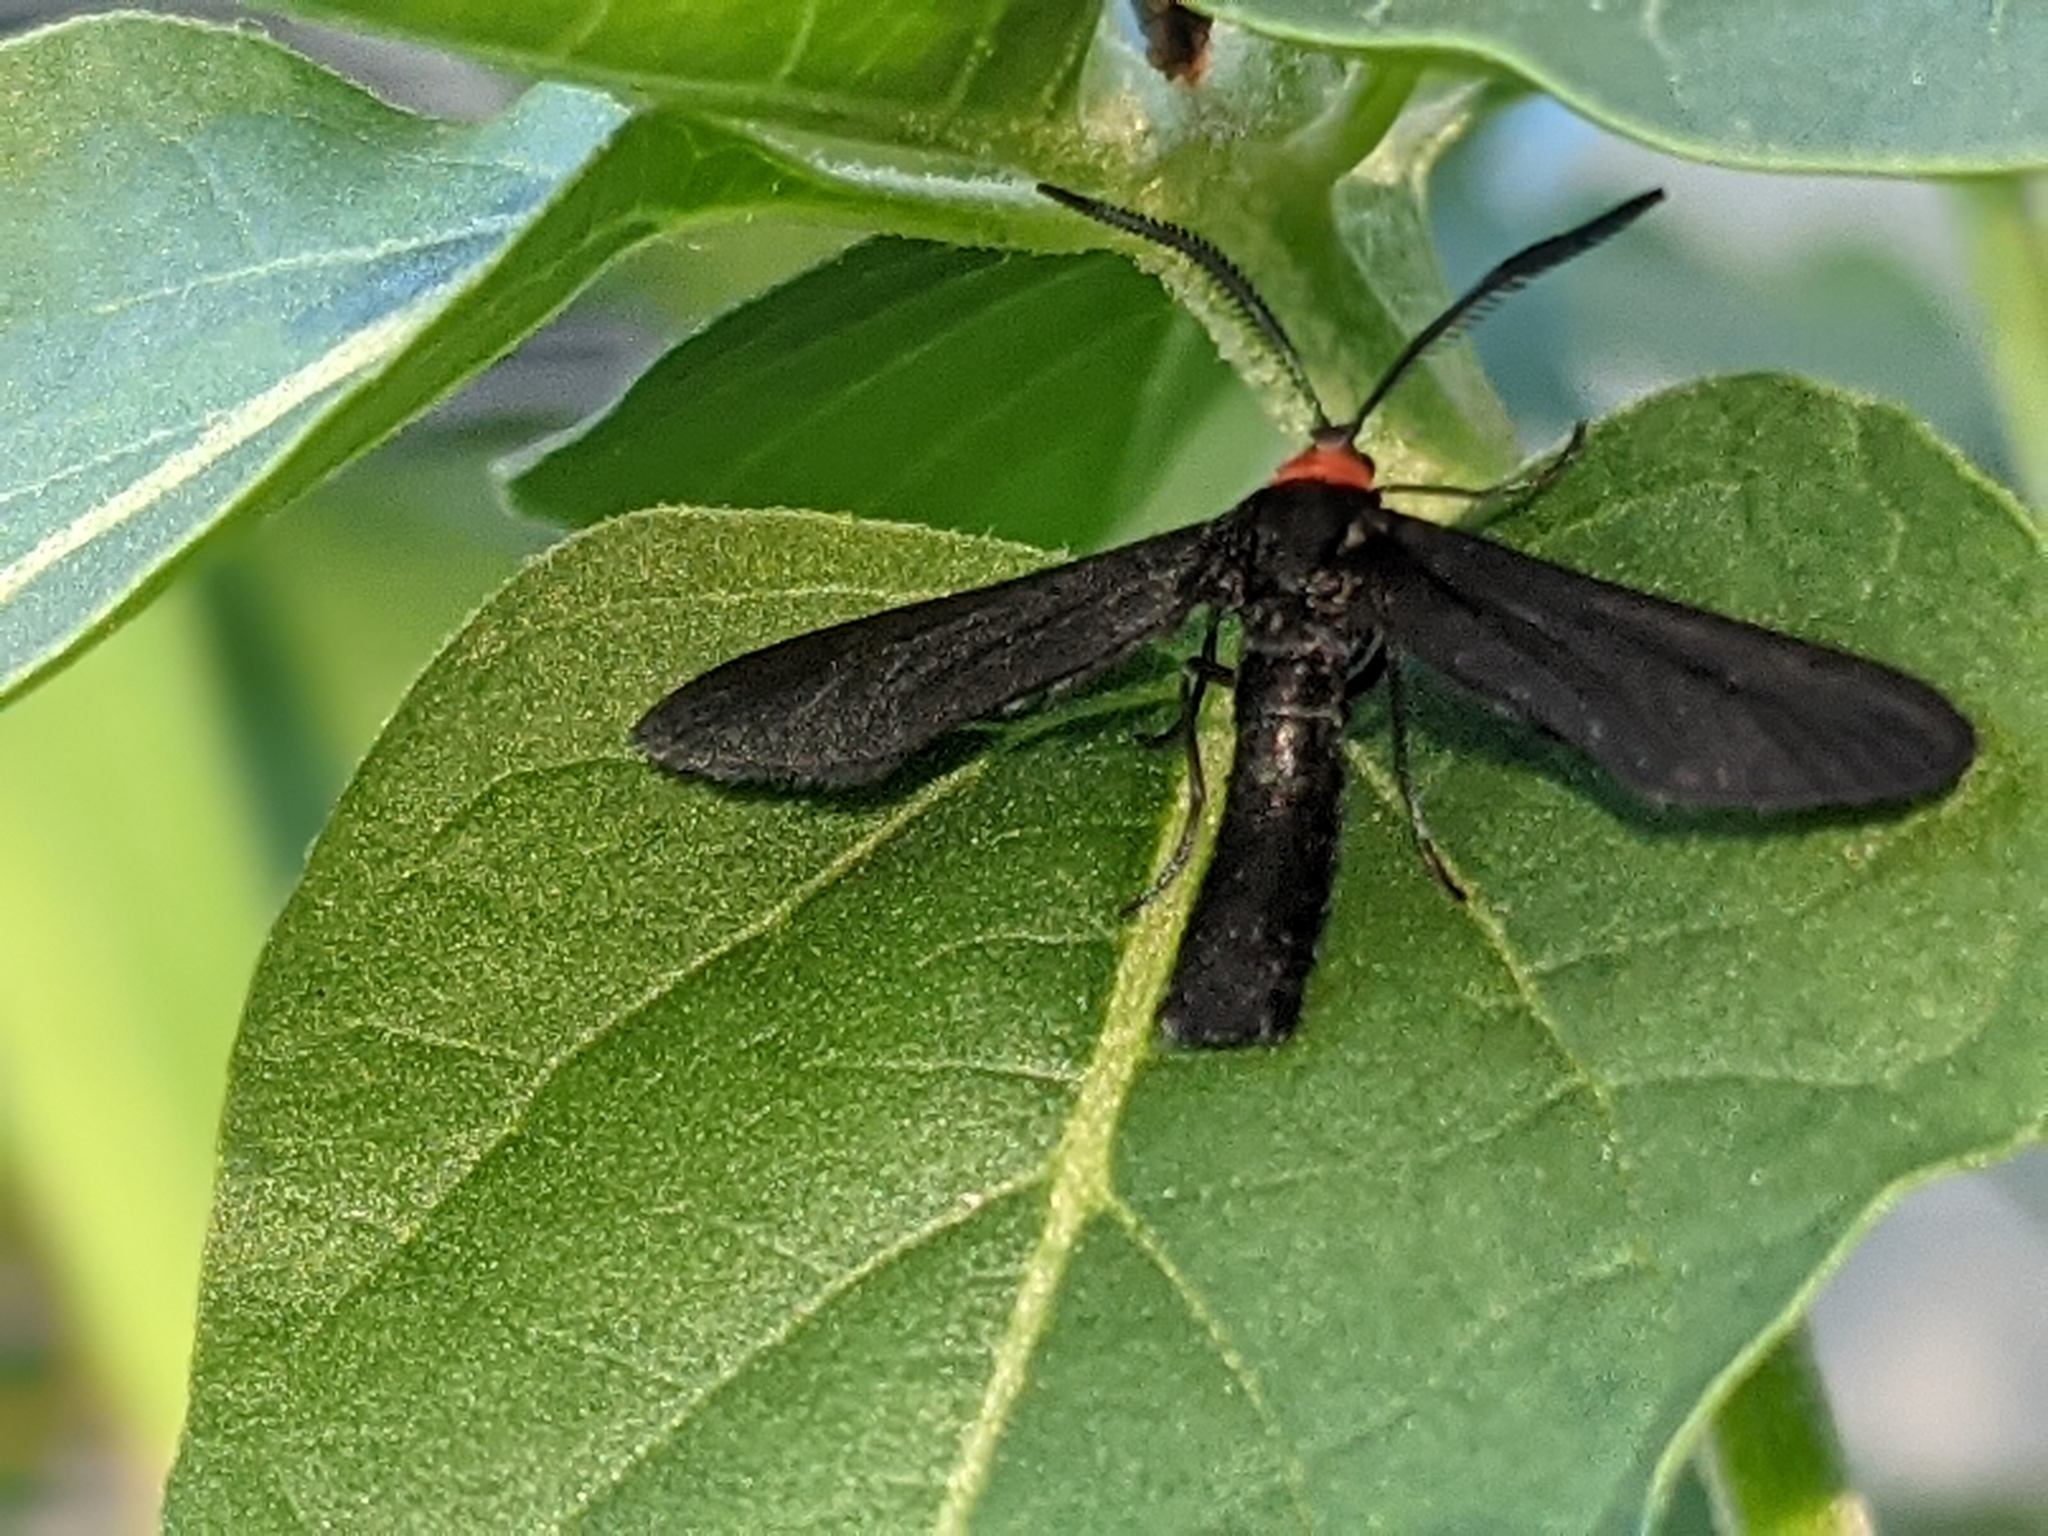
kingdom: Animalia
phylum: Arthropoda
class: Insecta
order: Lepidoptera
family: Zygaenidae
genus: Harrisina
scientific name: Harrisina americana
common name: Grapeleaf skeletonizer moth
